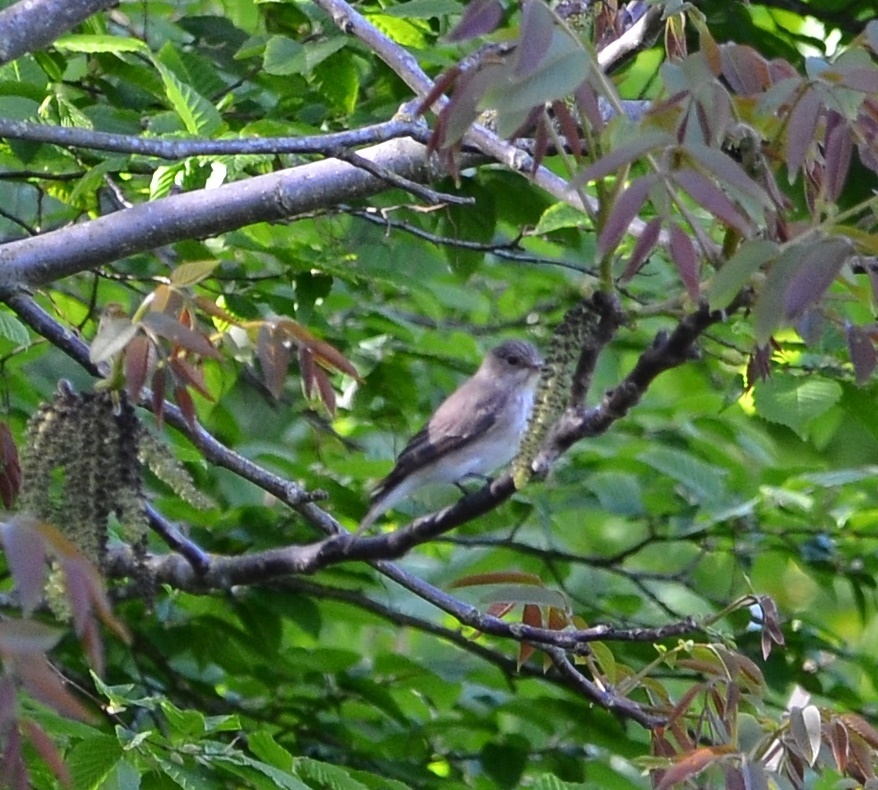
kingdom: Animalia
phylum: Chordata
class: Aves
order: Passeriformes
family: Muscicapidae
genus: Muscicapa
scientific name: Muscicapa striata
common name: Spotted flycatcher
